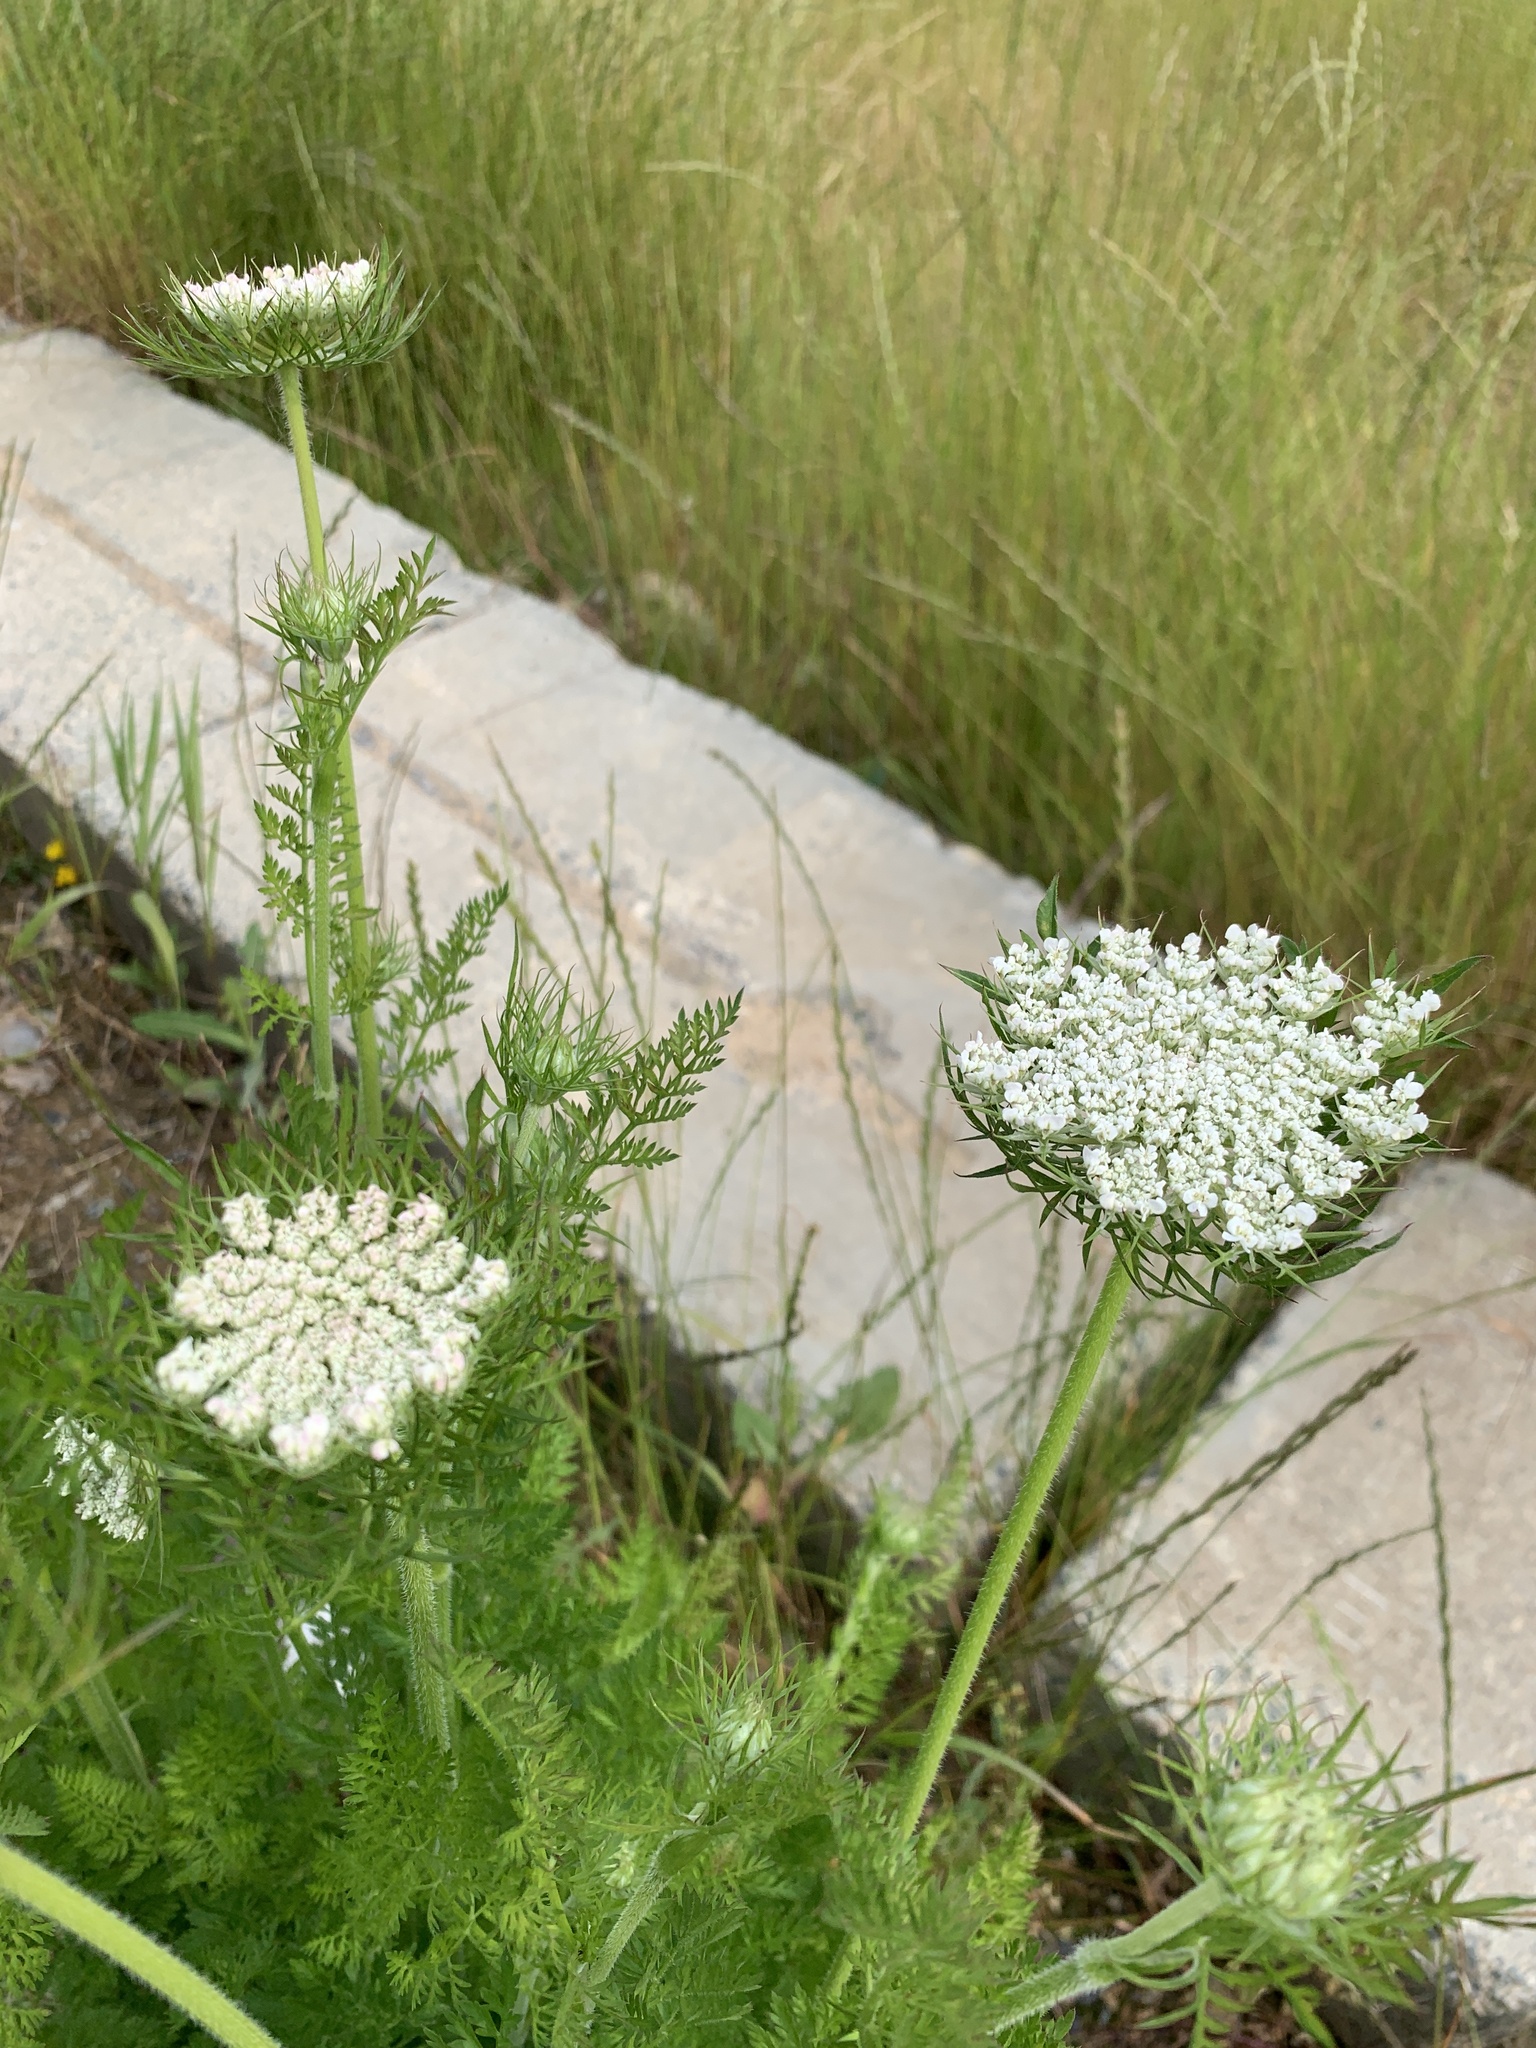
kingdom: Plantae
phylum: Tracheophyta
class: Magnoliopsida
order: Apiales
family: Apiaceae
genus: Daucus
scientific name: Daucus carota
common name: Wild carrot
